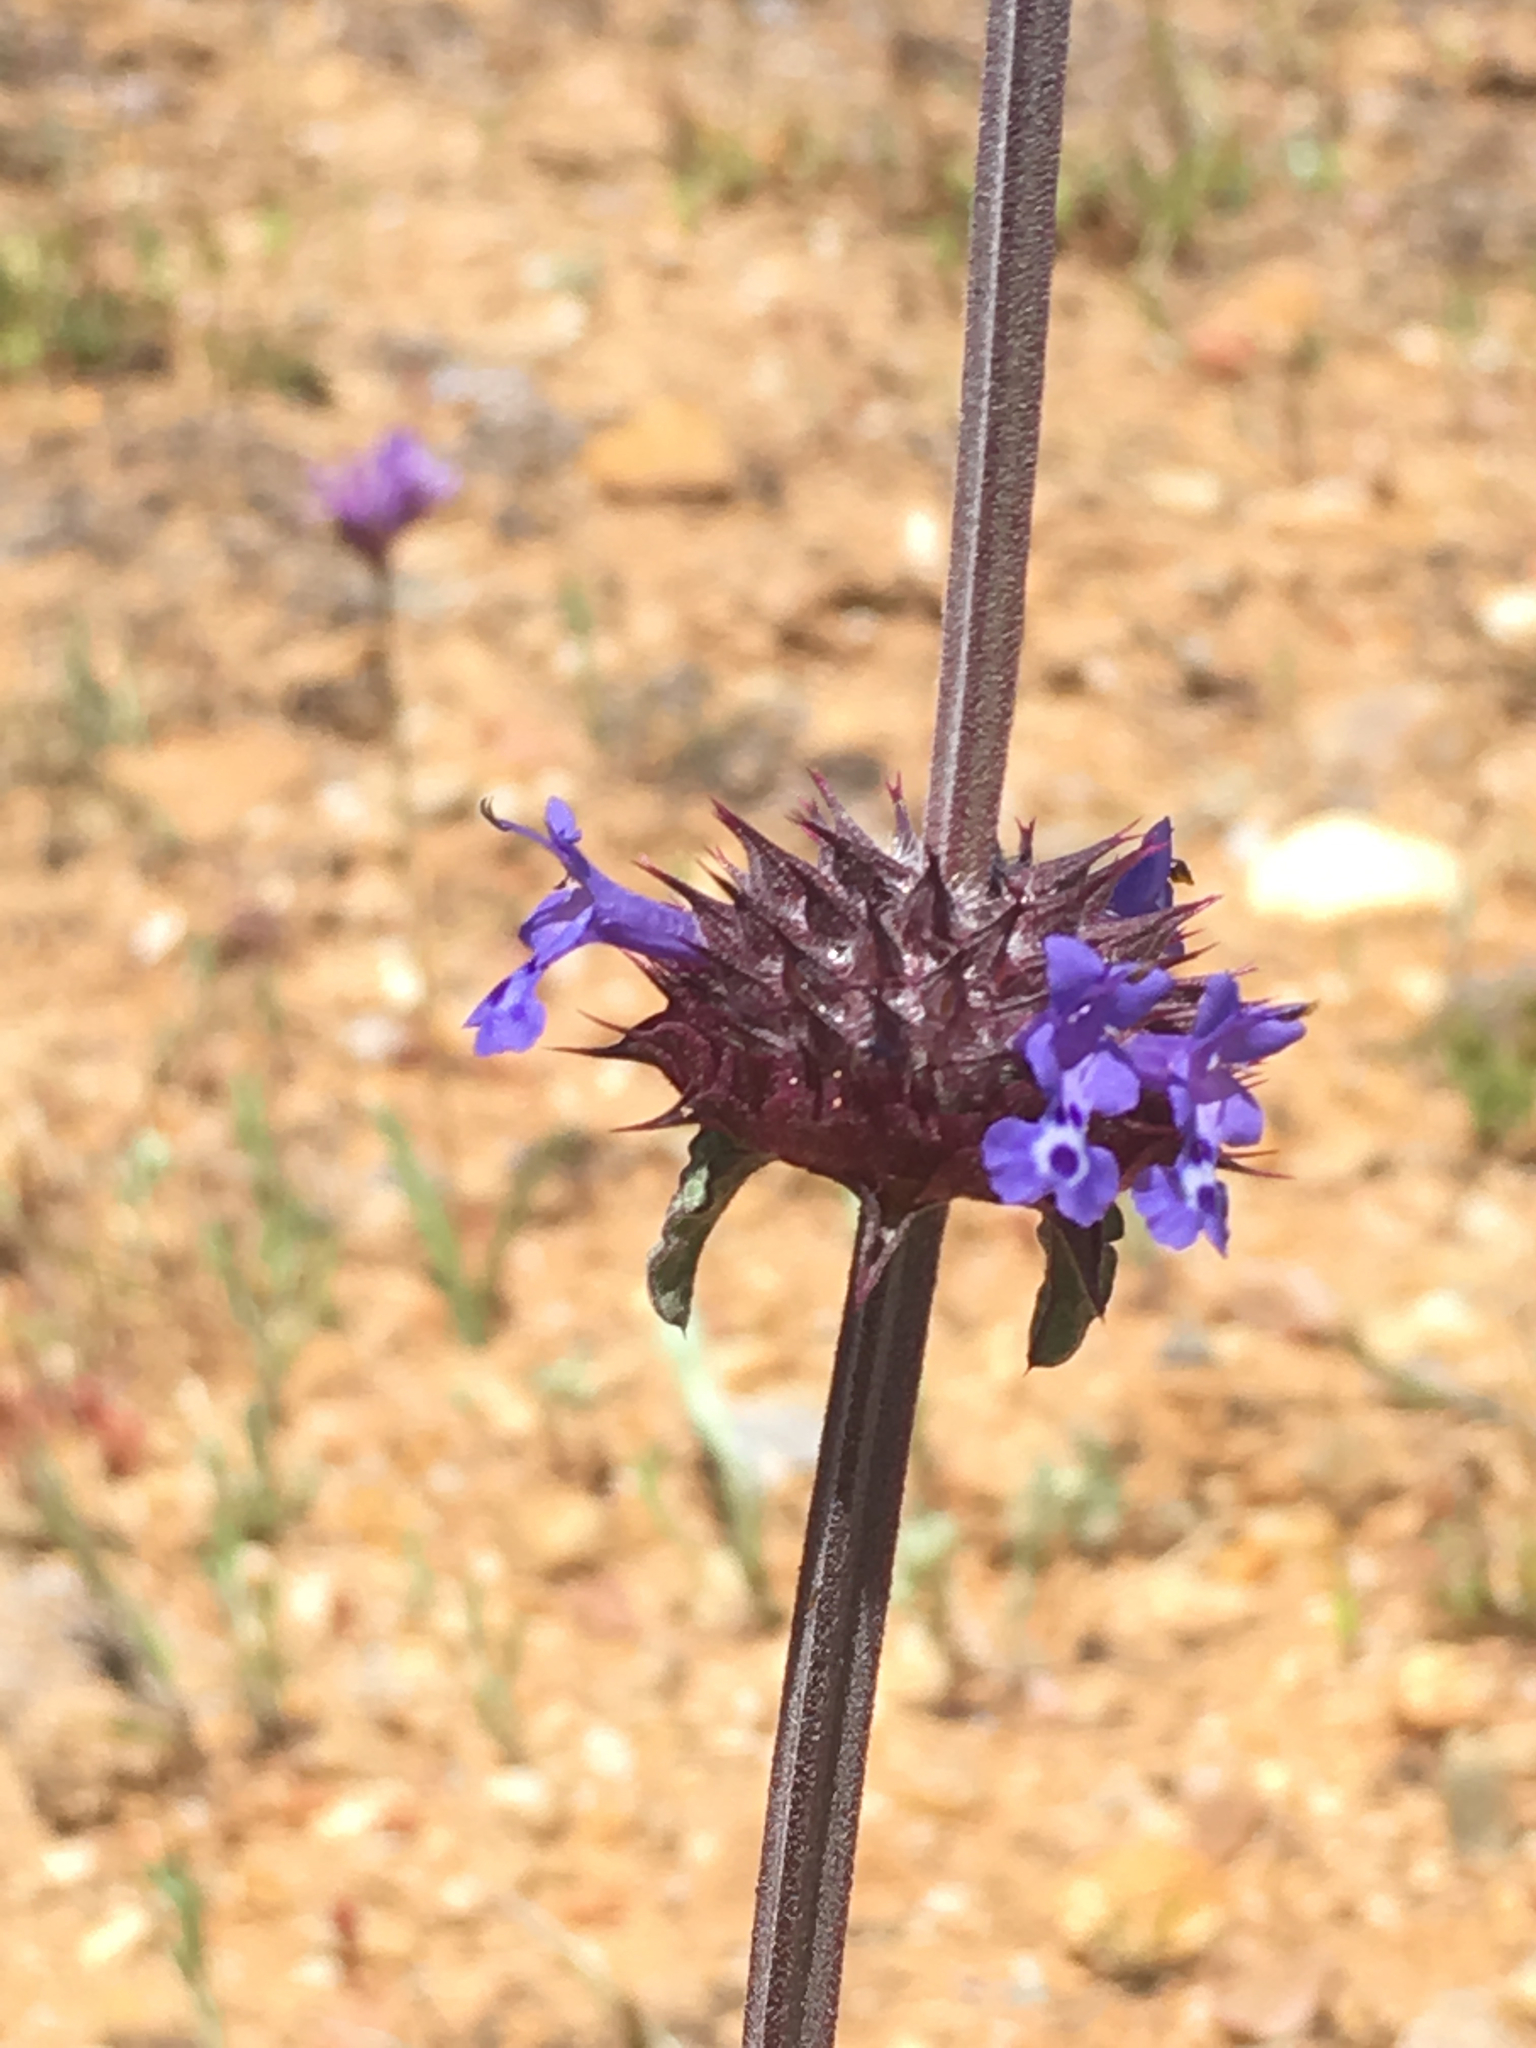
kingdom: Plantae
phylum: Tracheophyta
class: Magnoliopsida
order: Lamiales
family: Lamiaceae
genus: Salvia
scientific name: Salvia columbariae
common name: Chia
